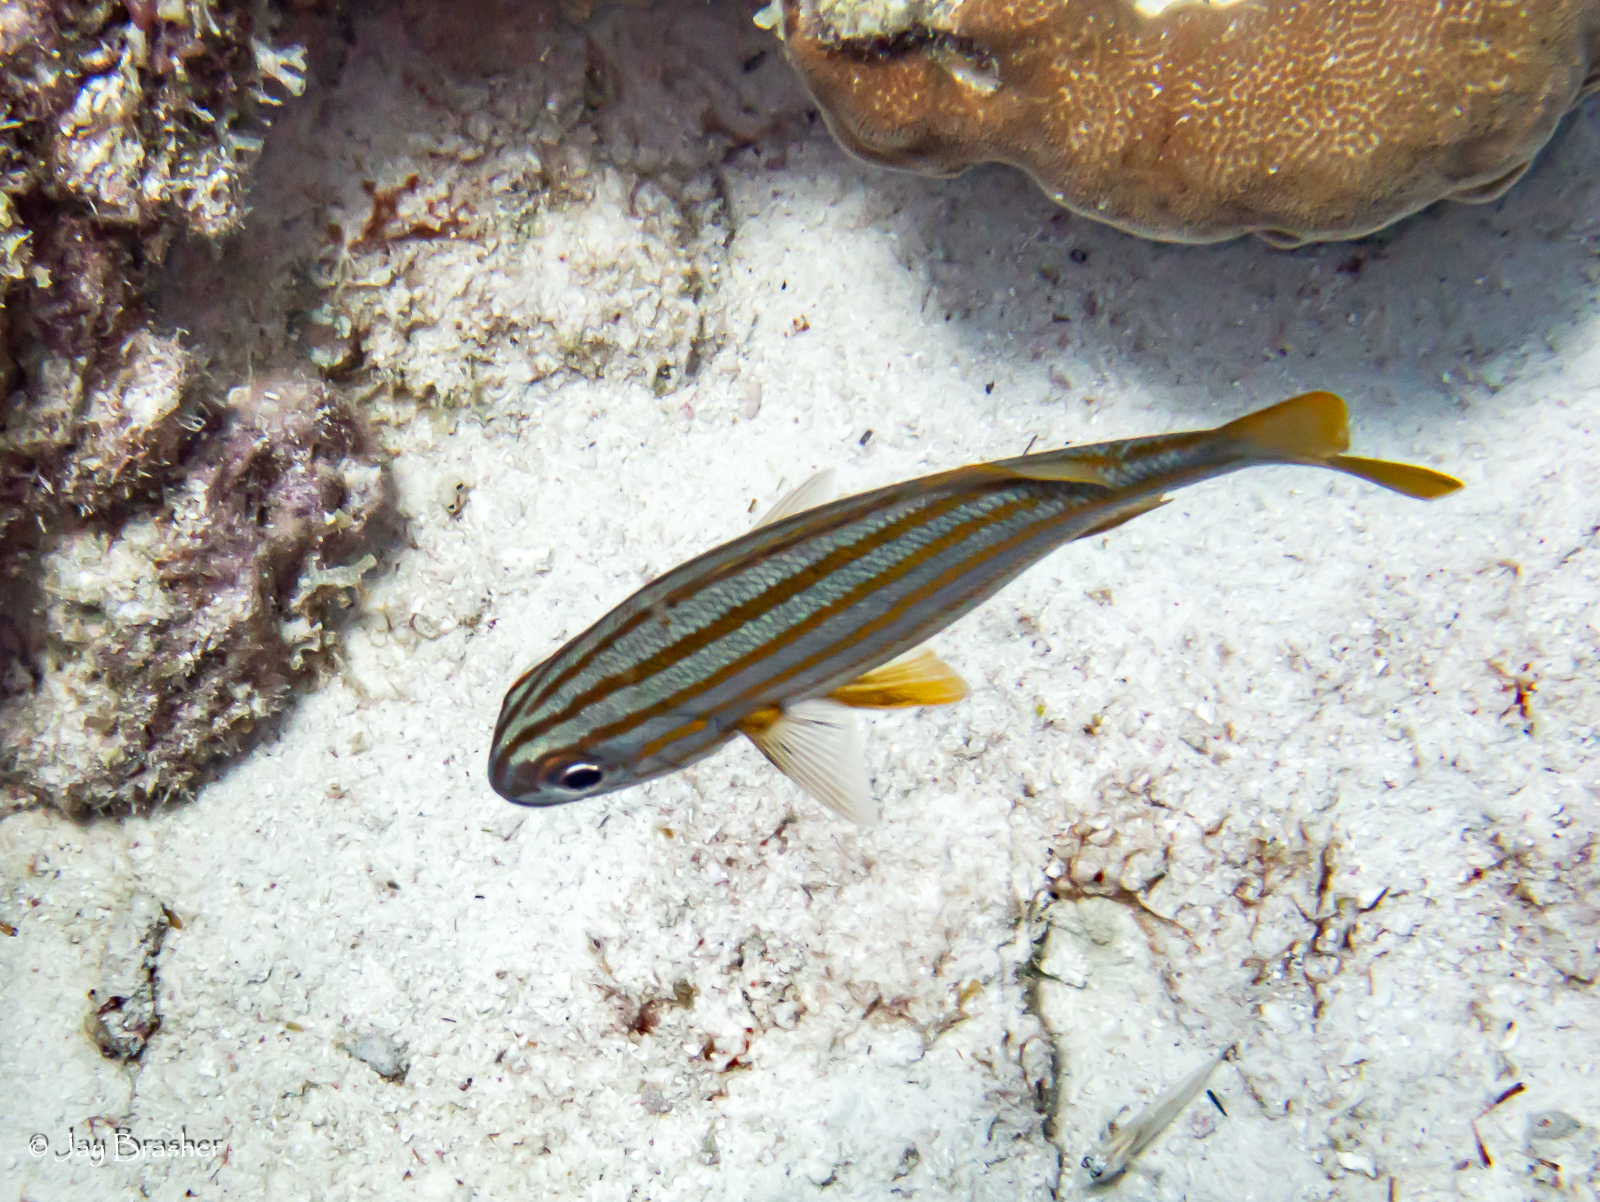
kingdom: Animalia
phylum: Chordata
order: Perciformes
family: Haemulidae
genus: Haemulon
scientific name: Haemulon chrysargyreum
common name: Smallmouth grunt
